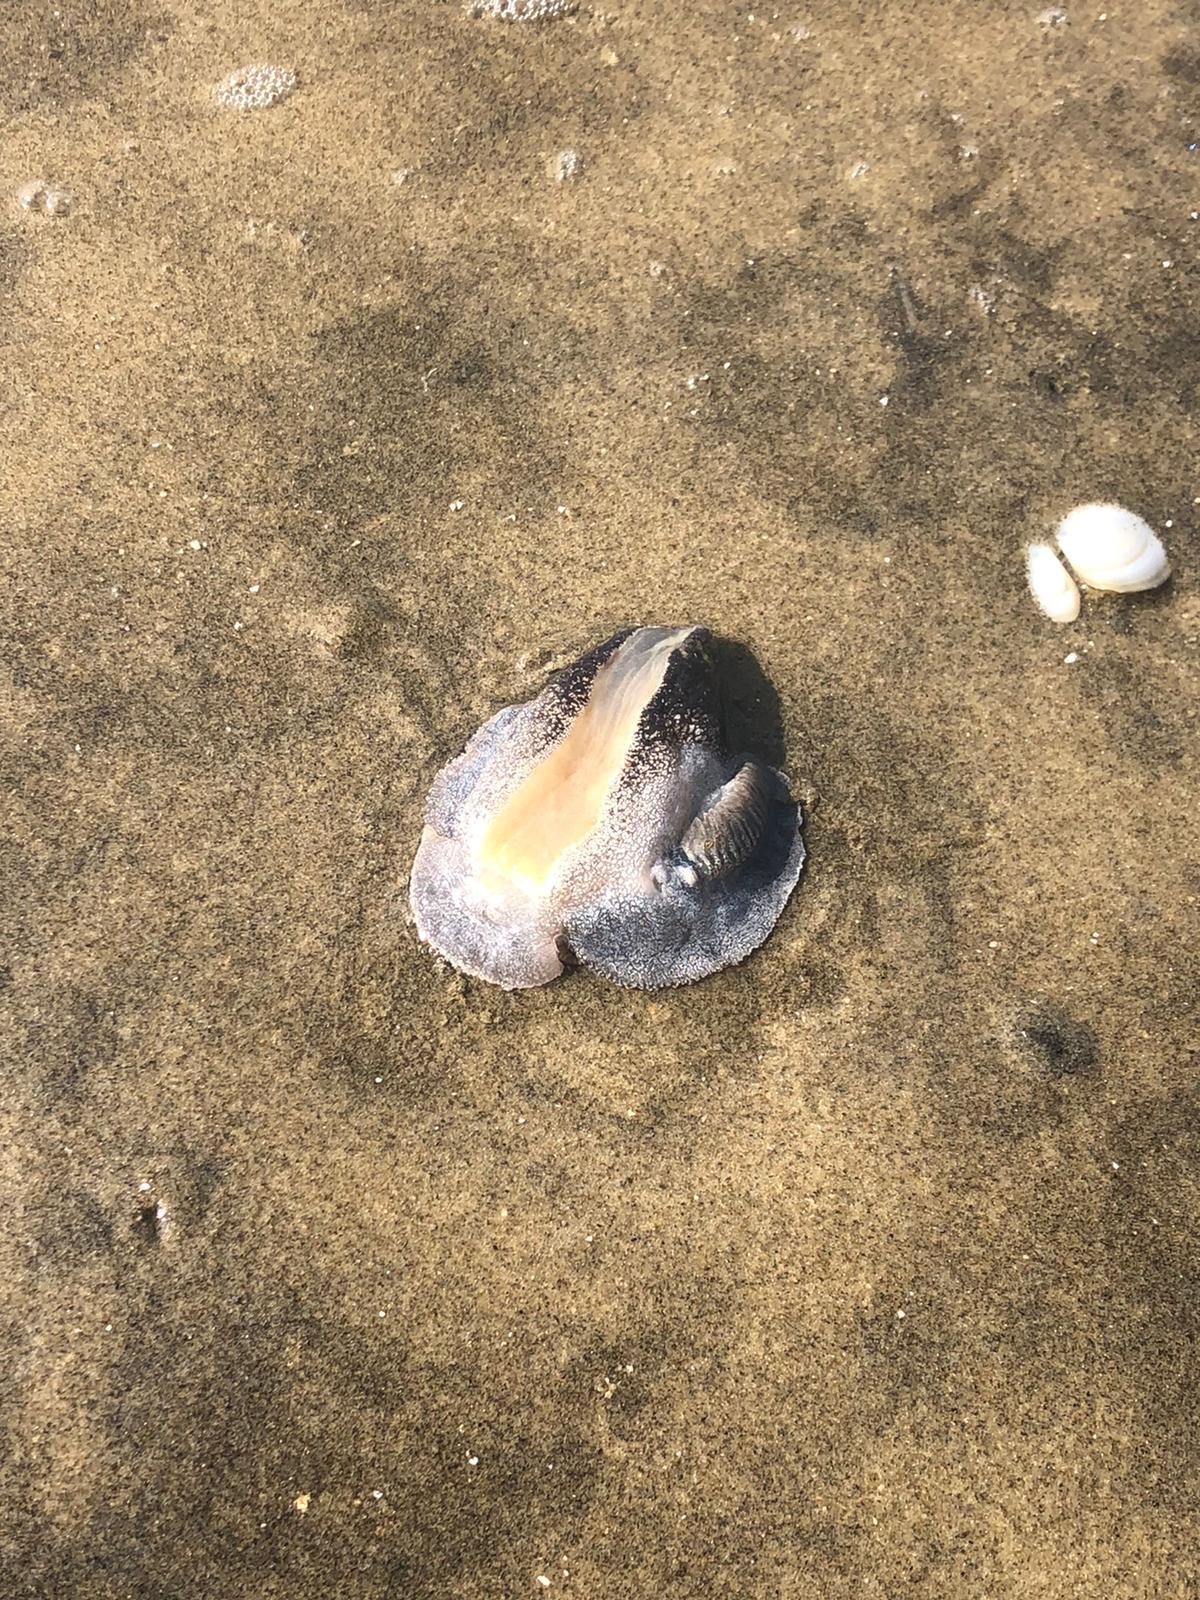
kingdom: Animalia
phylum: Mollusca
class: Gastropoda
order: Pleurobranchida
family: Pleurobranchaeidae
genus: Pleurobranchaea
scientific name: Pleurobranchaea maculata
